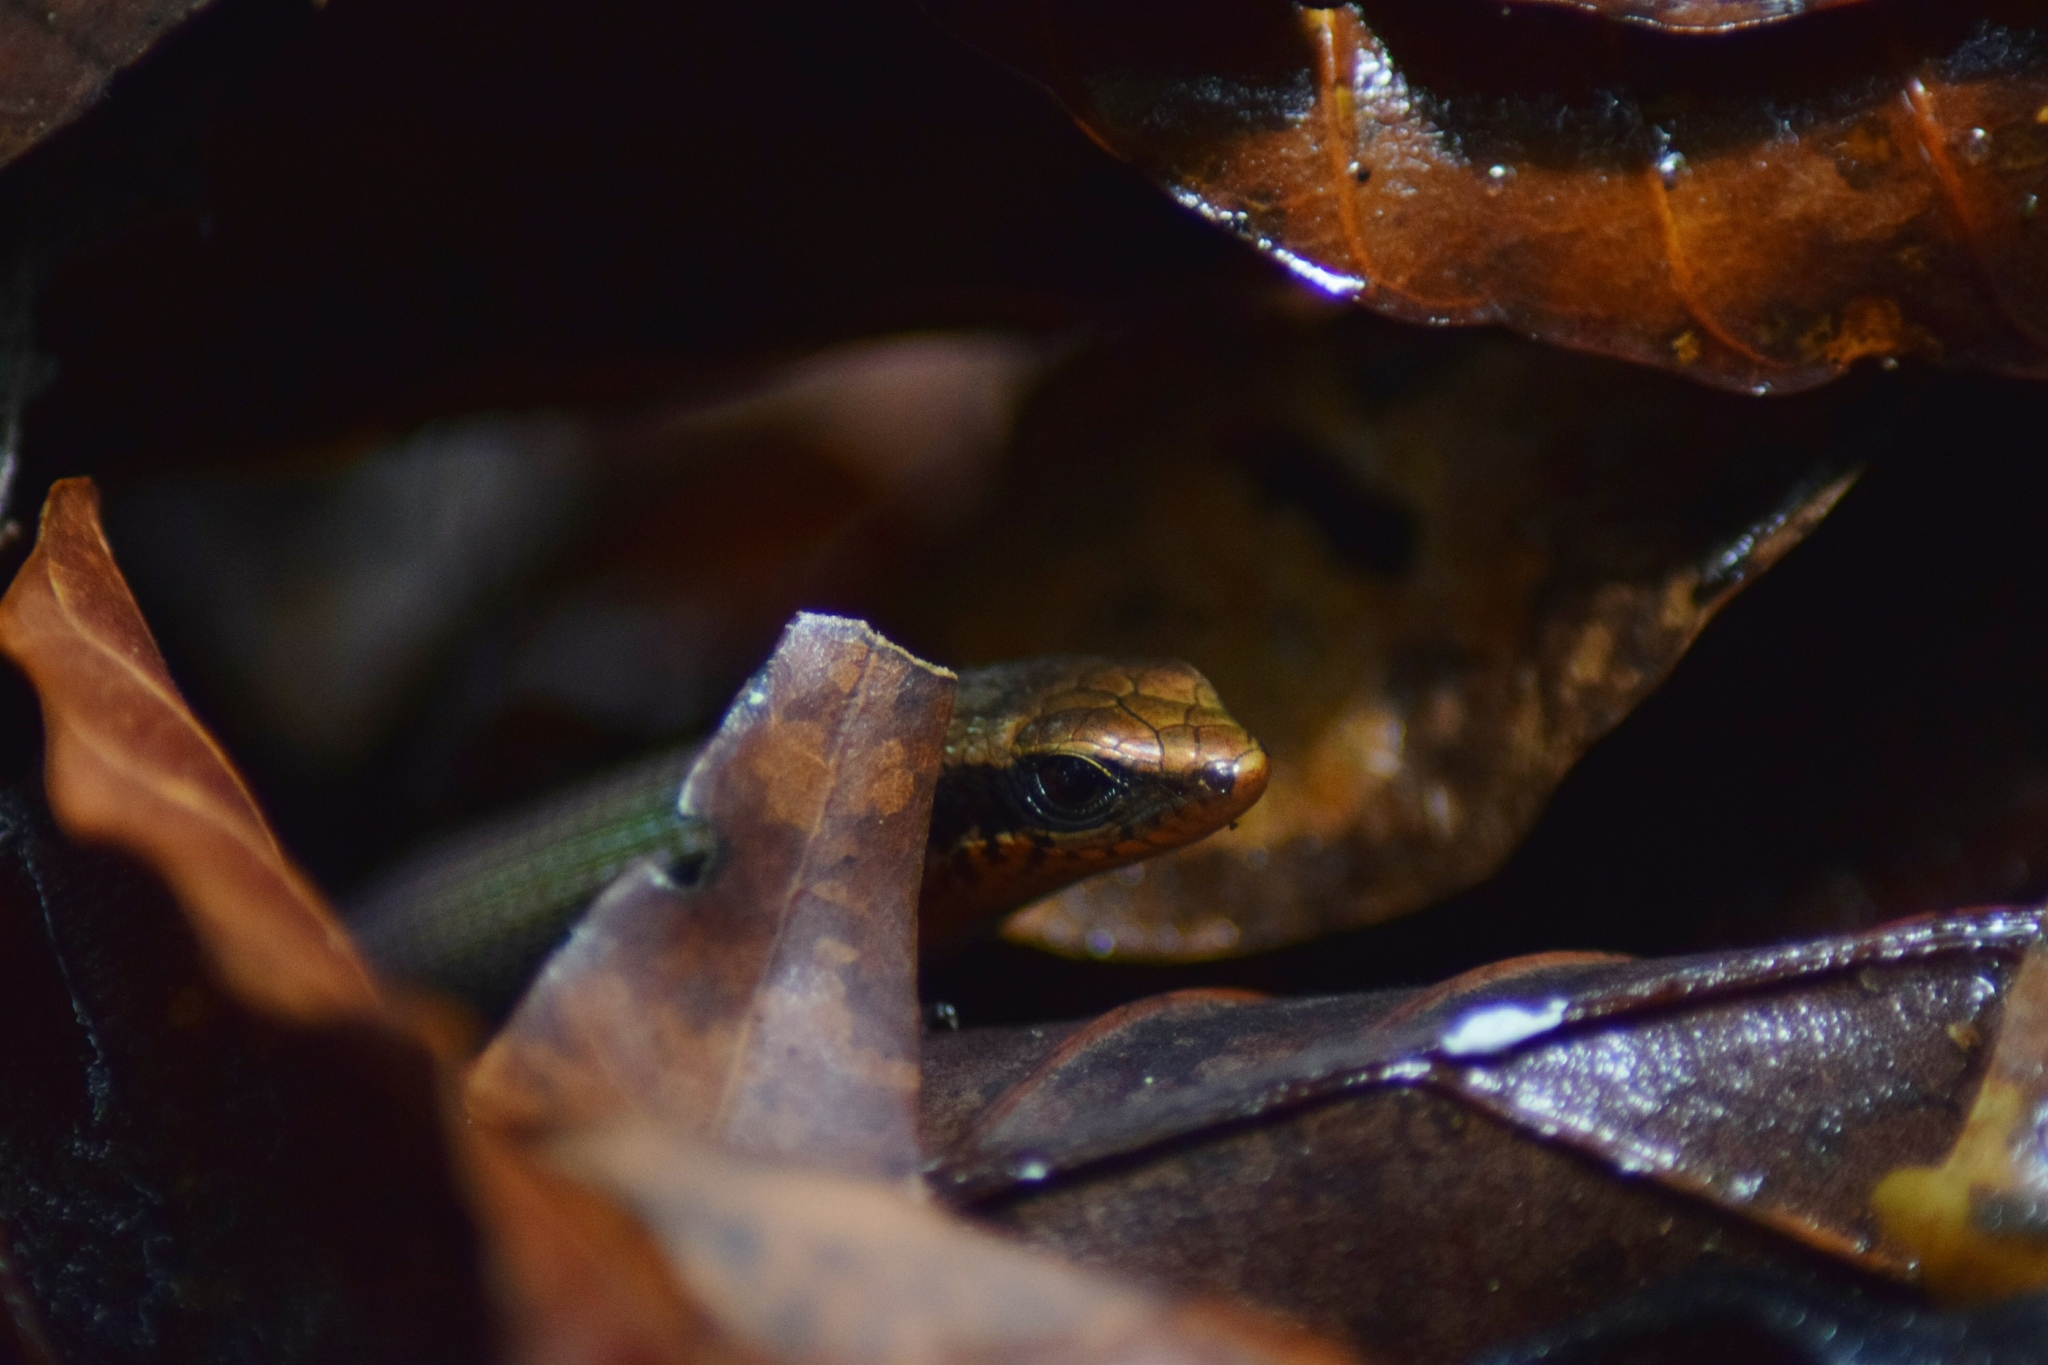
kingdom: Animalia
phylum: Chordata
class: Squamata
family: Scincidae
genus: Eutropis
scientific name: Eutropis macularia
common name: Bronze mabuya
